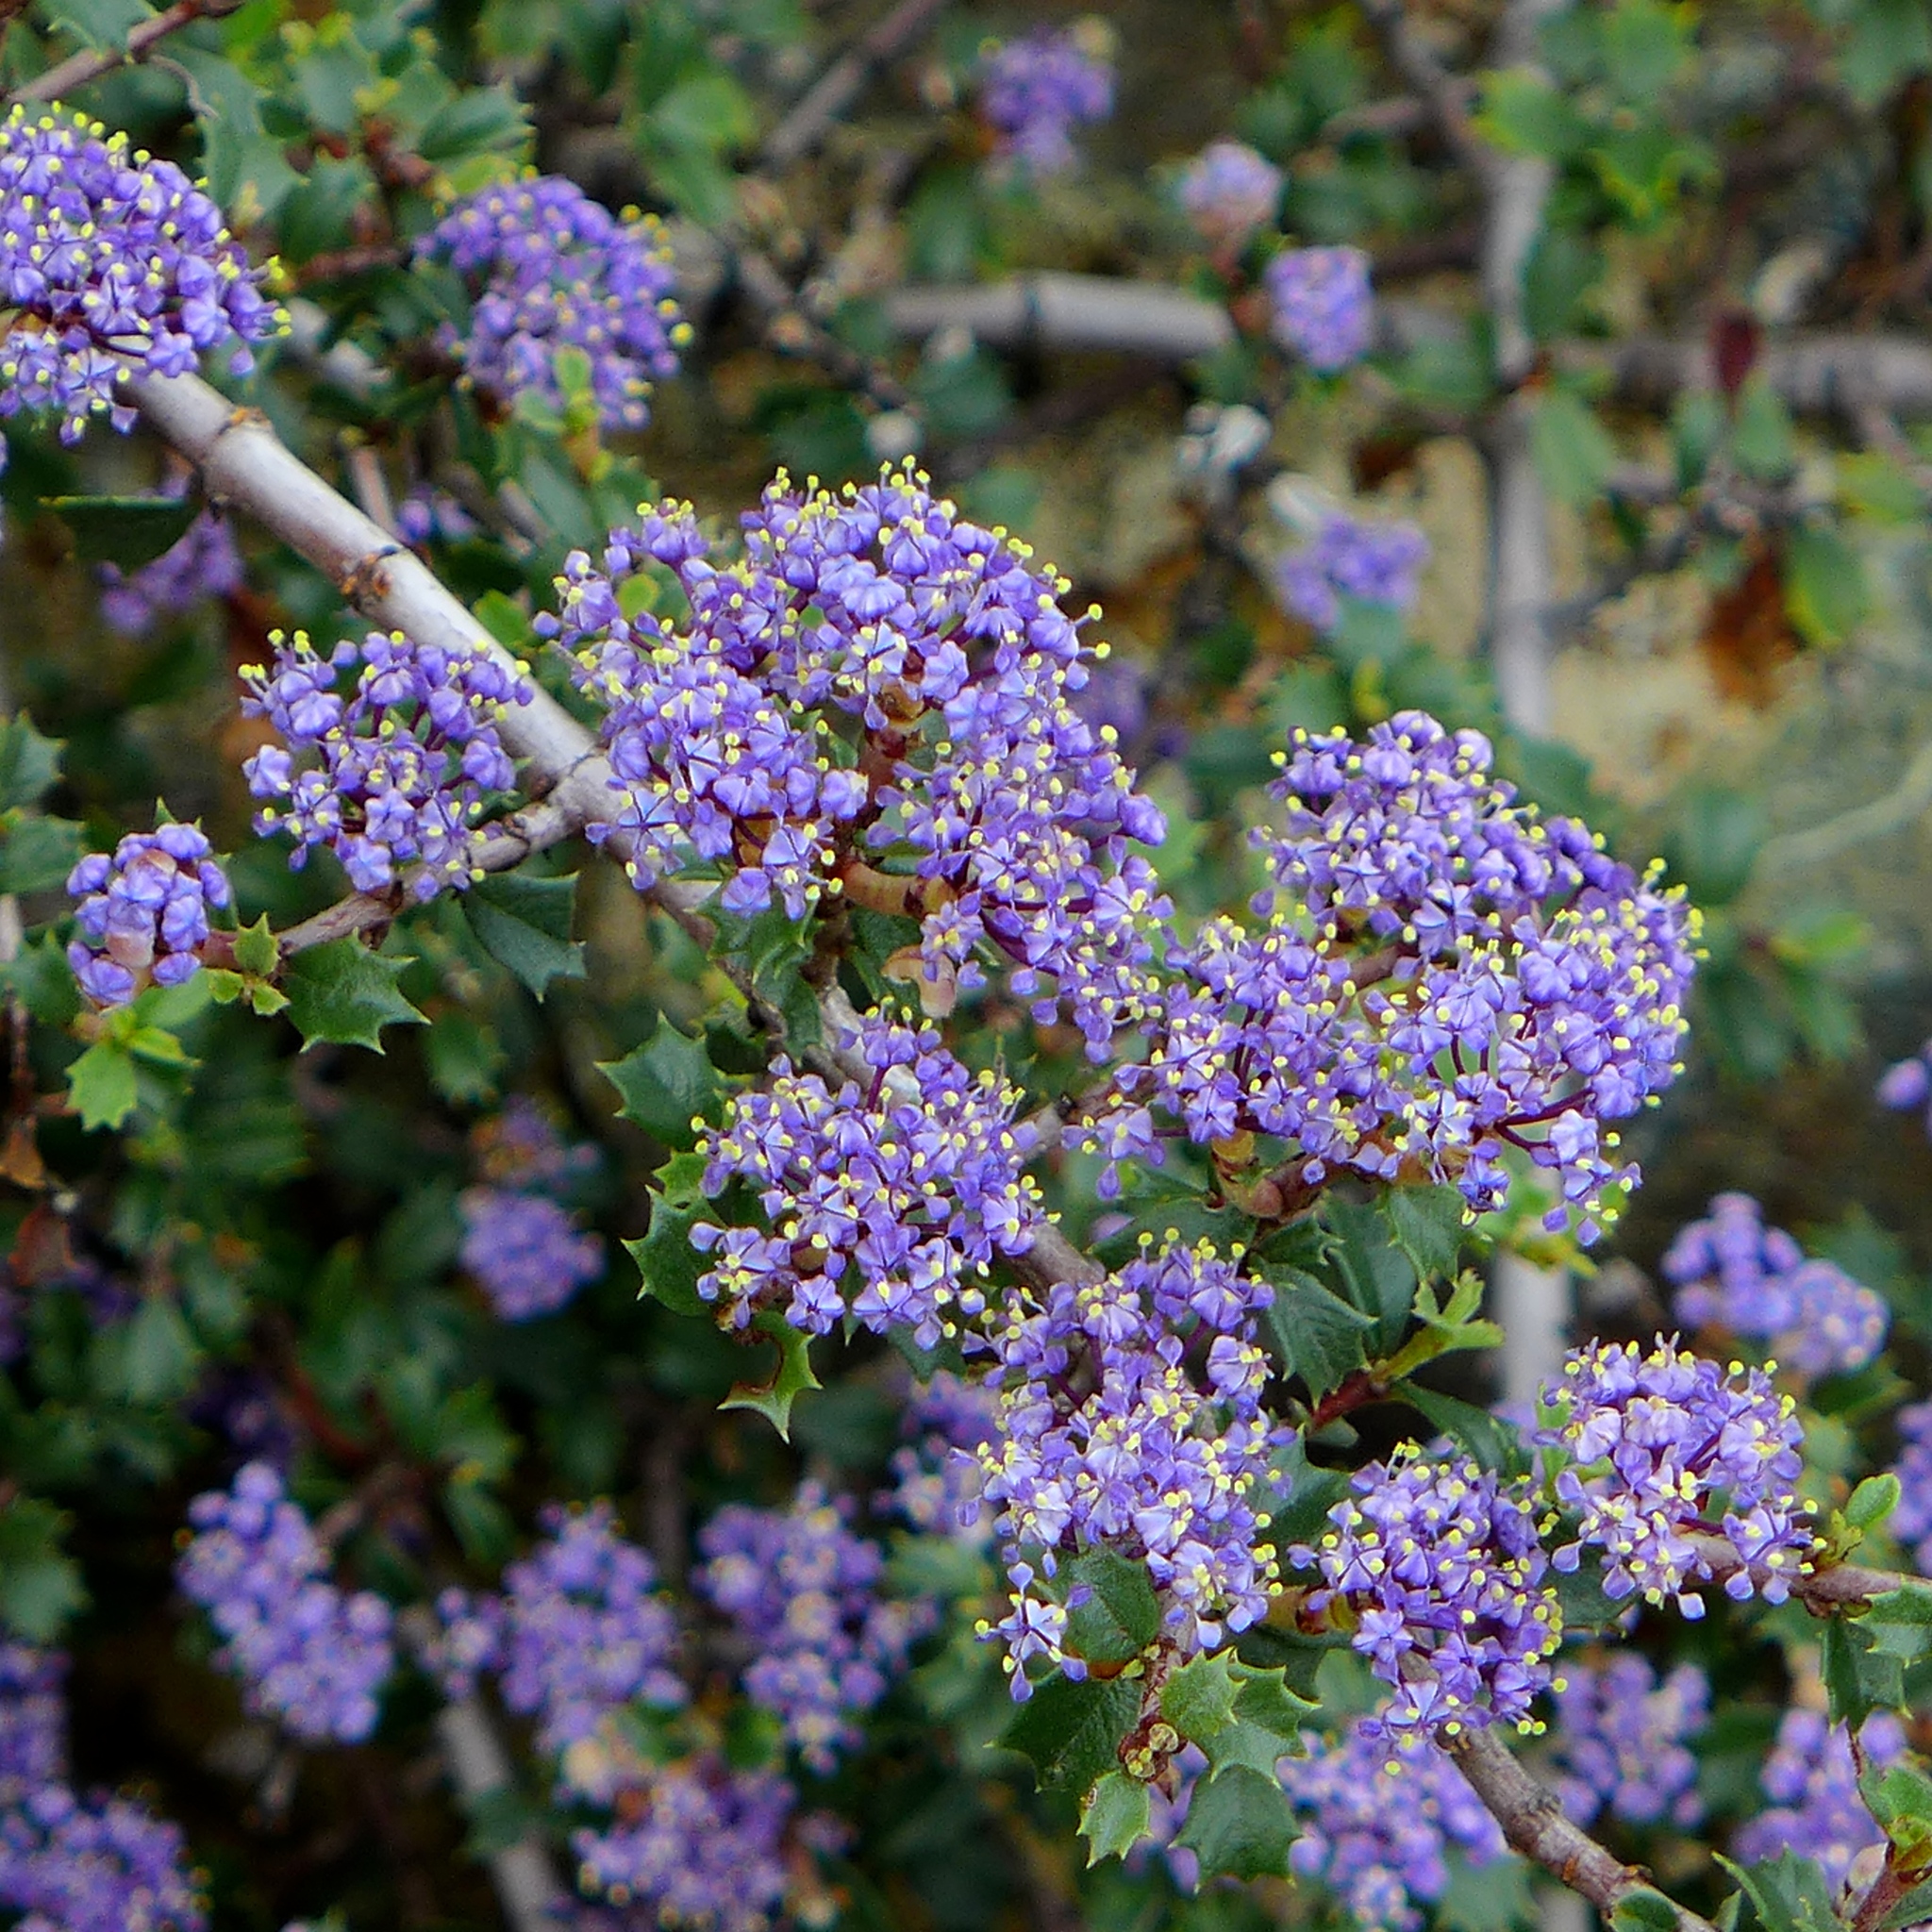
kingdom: Plantae
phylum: Tracheophyta
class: Magnoliopsida
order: Rosales
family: Rhamnaceae
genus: Ceanothus
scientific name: Ceanothus divergens
